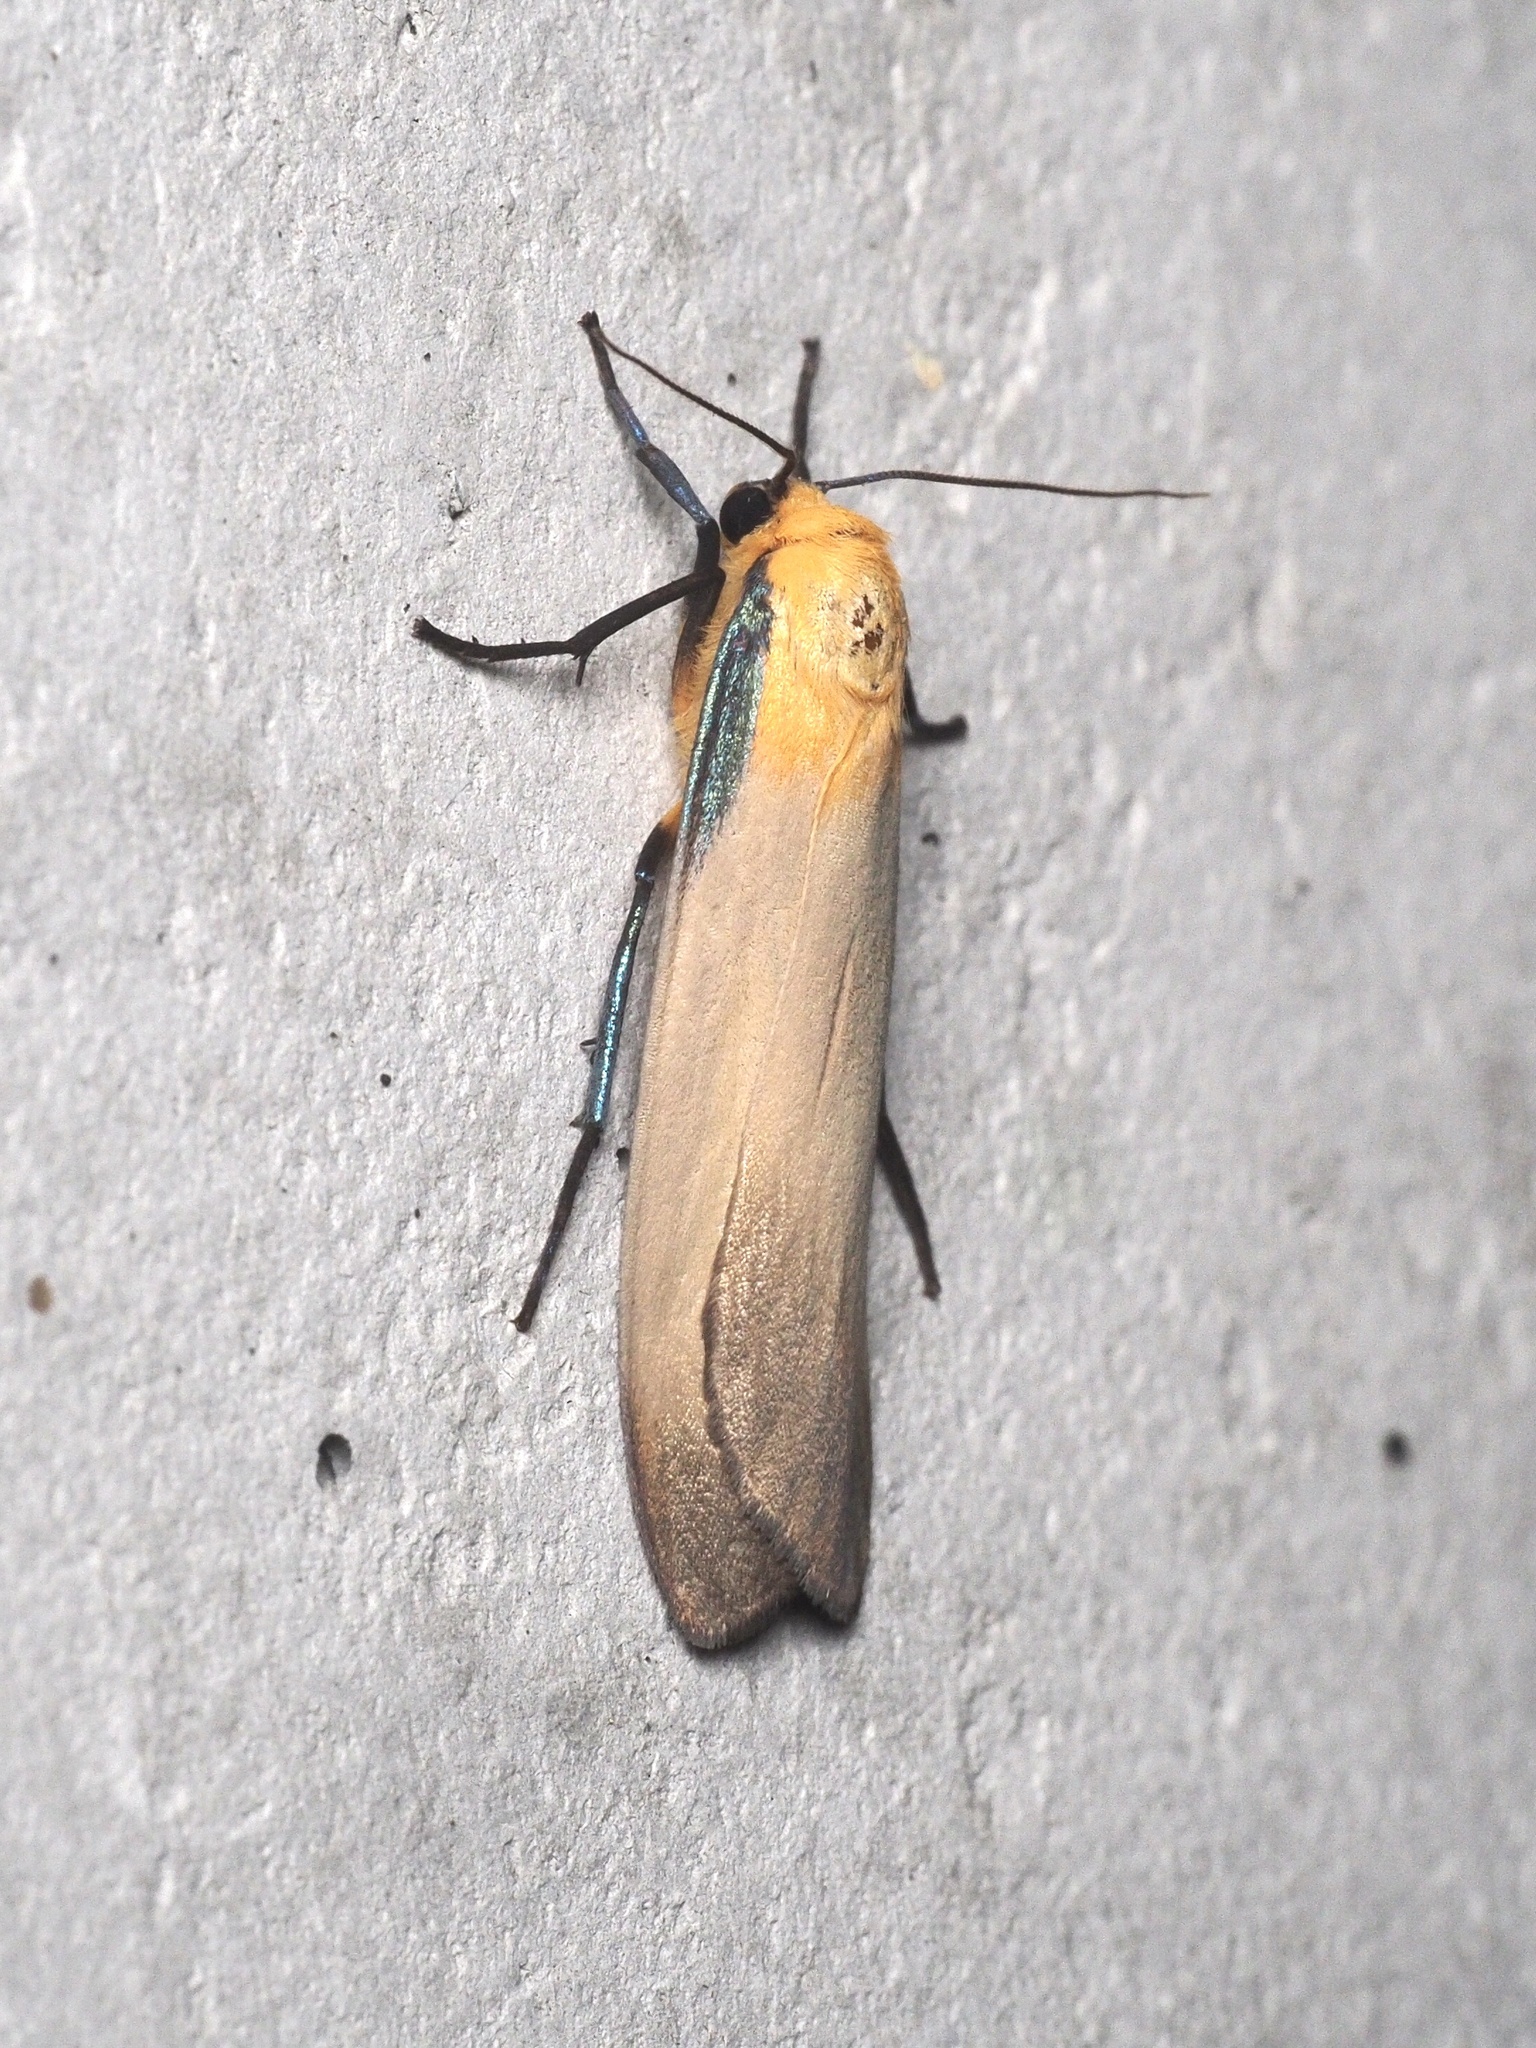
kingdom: Animalia
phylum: Arthropoda
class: Insecta
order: Lepidoptera
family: Erebidae
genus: Lithosia
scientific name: Lithosia quadra
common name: Four-spotted footman
